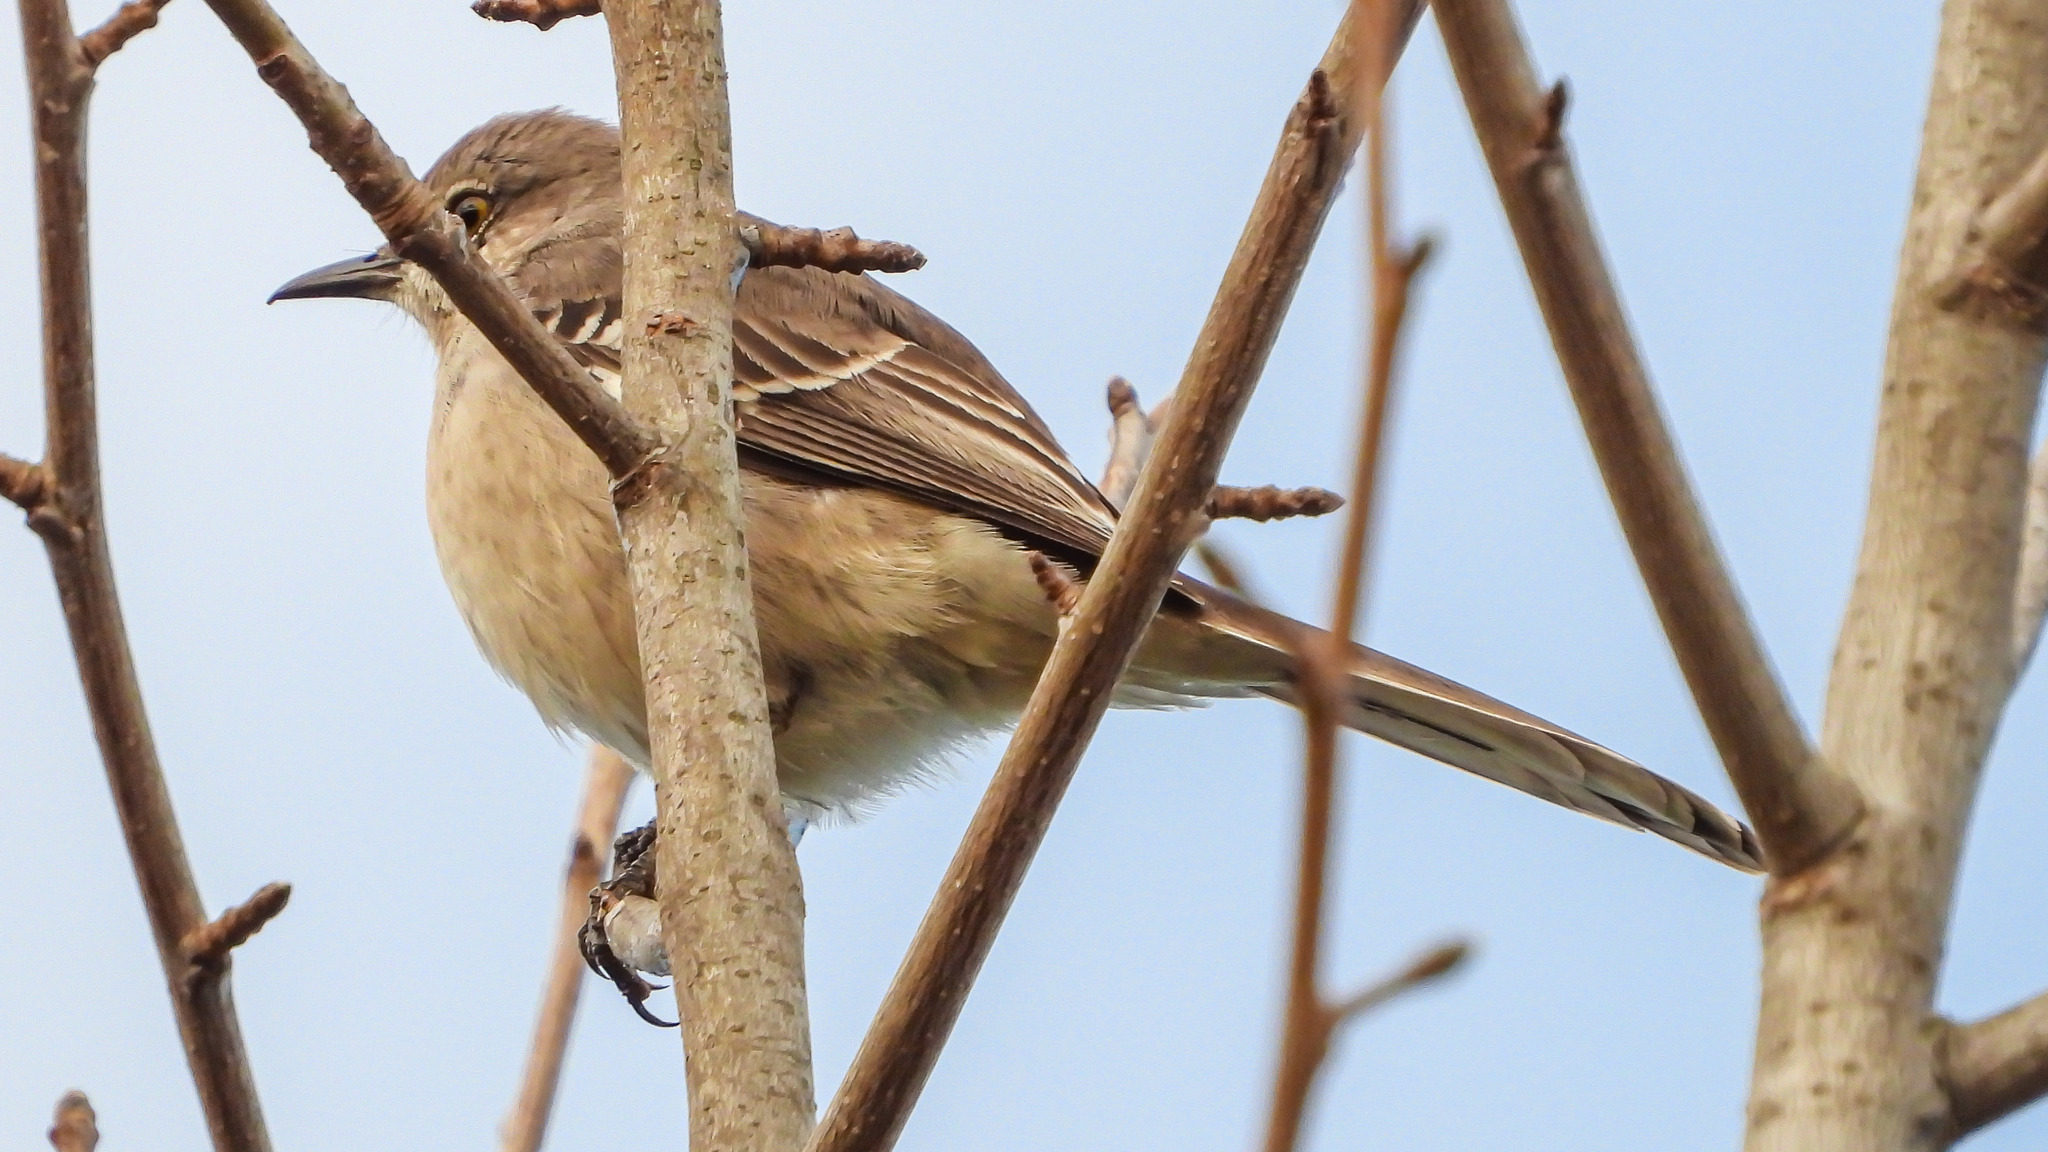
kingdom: Animalia
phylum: Chordata
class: Aves
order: Passeriformes
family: Mimidae
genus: Mimus
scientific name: Mimus polyglottos
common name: Northern mockingbird
